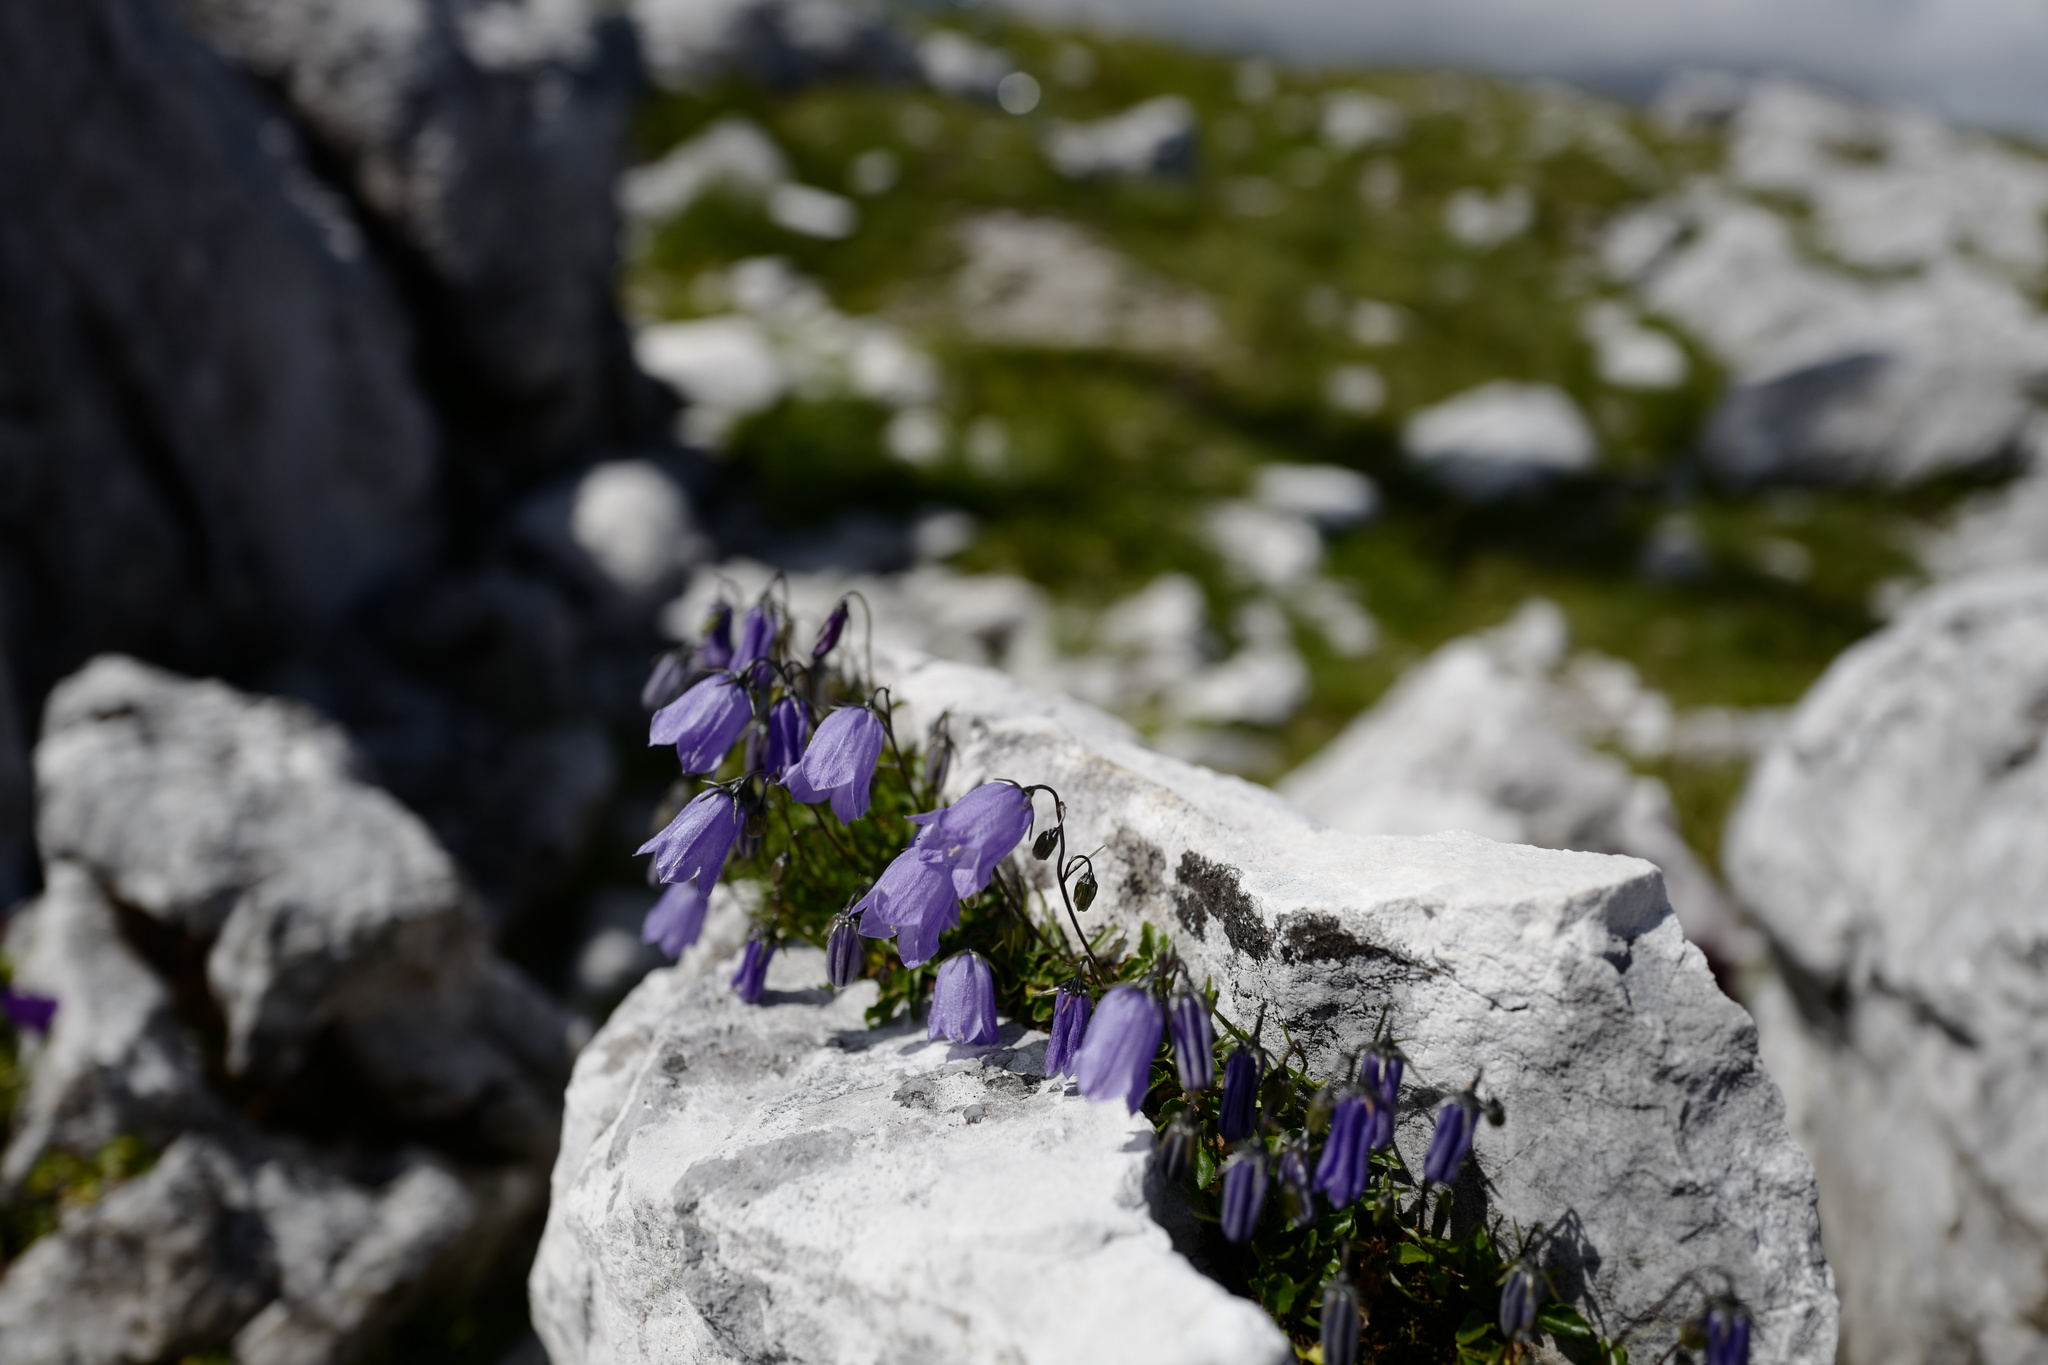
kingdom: Plantae
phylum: Tracheophyta
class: Magnoliopsida
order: Asterales
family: Campanulaceae
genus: Campanula
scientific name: Campanula cochleariifolia
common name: Fairies'-thimbles
